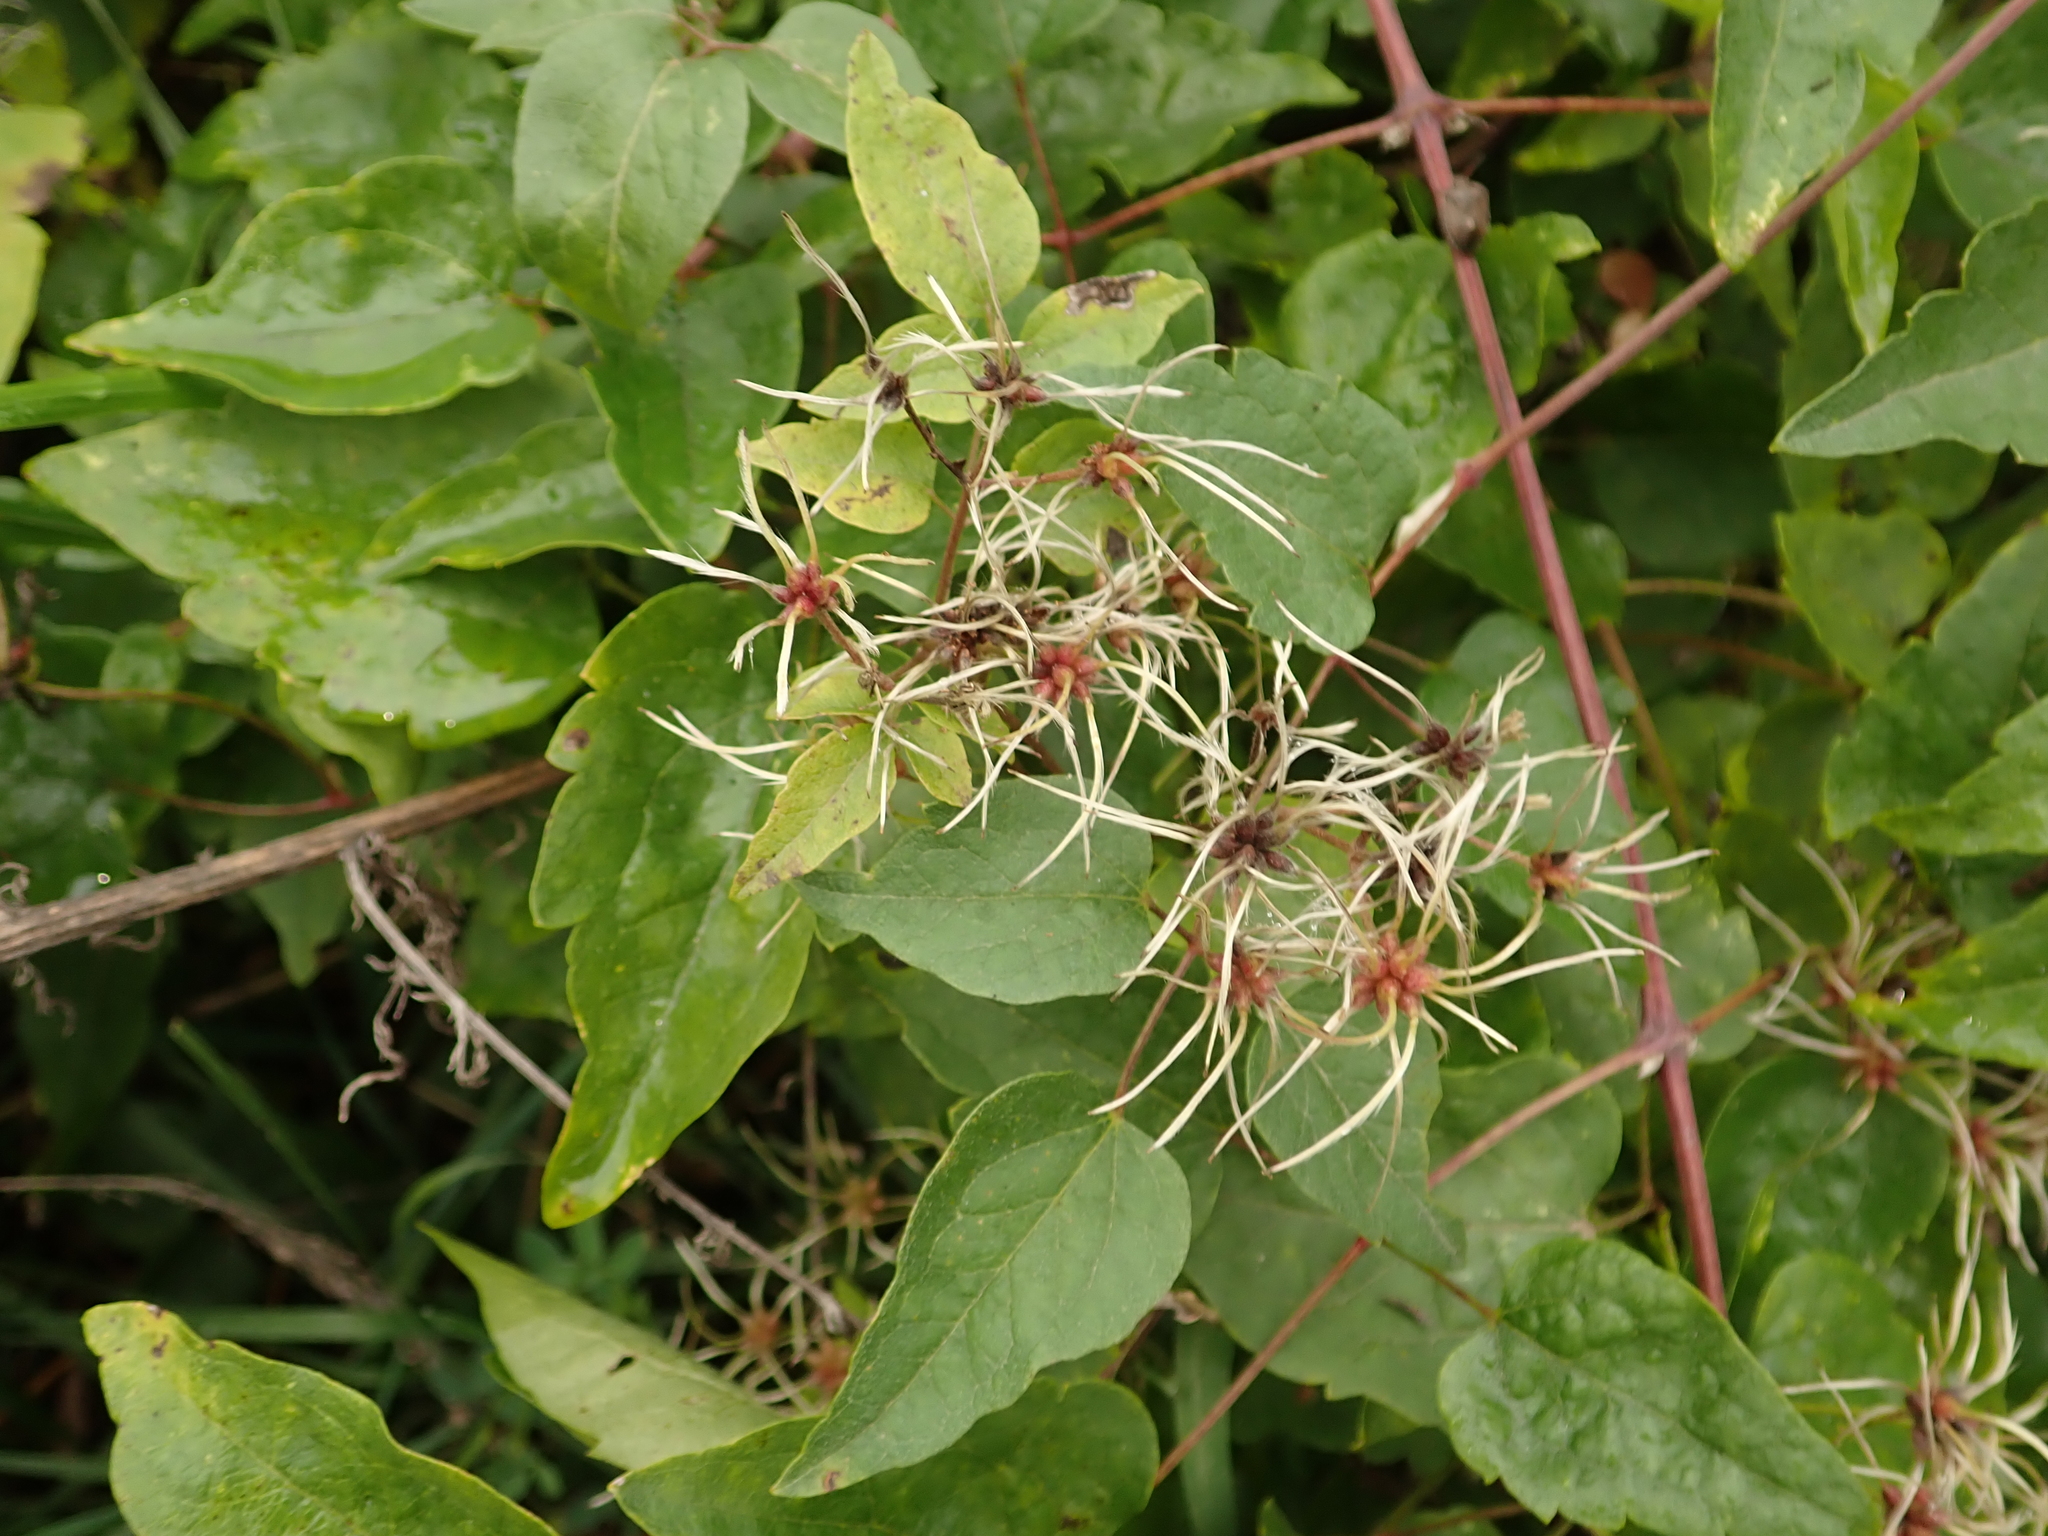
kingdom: Plantae
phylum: Tracheophyta
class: Magnoliopsida
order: Ranunculales
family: Ranunculaceae
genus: Clematis
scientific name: Clematis vitalba
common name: Evergreen clematis
